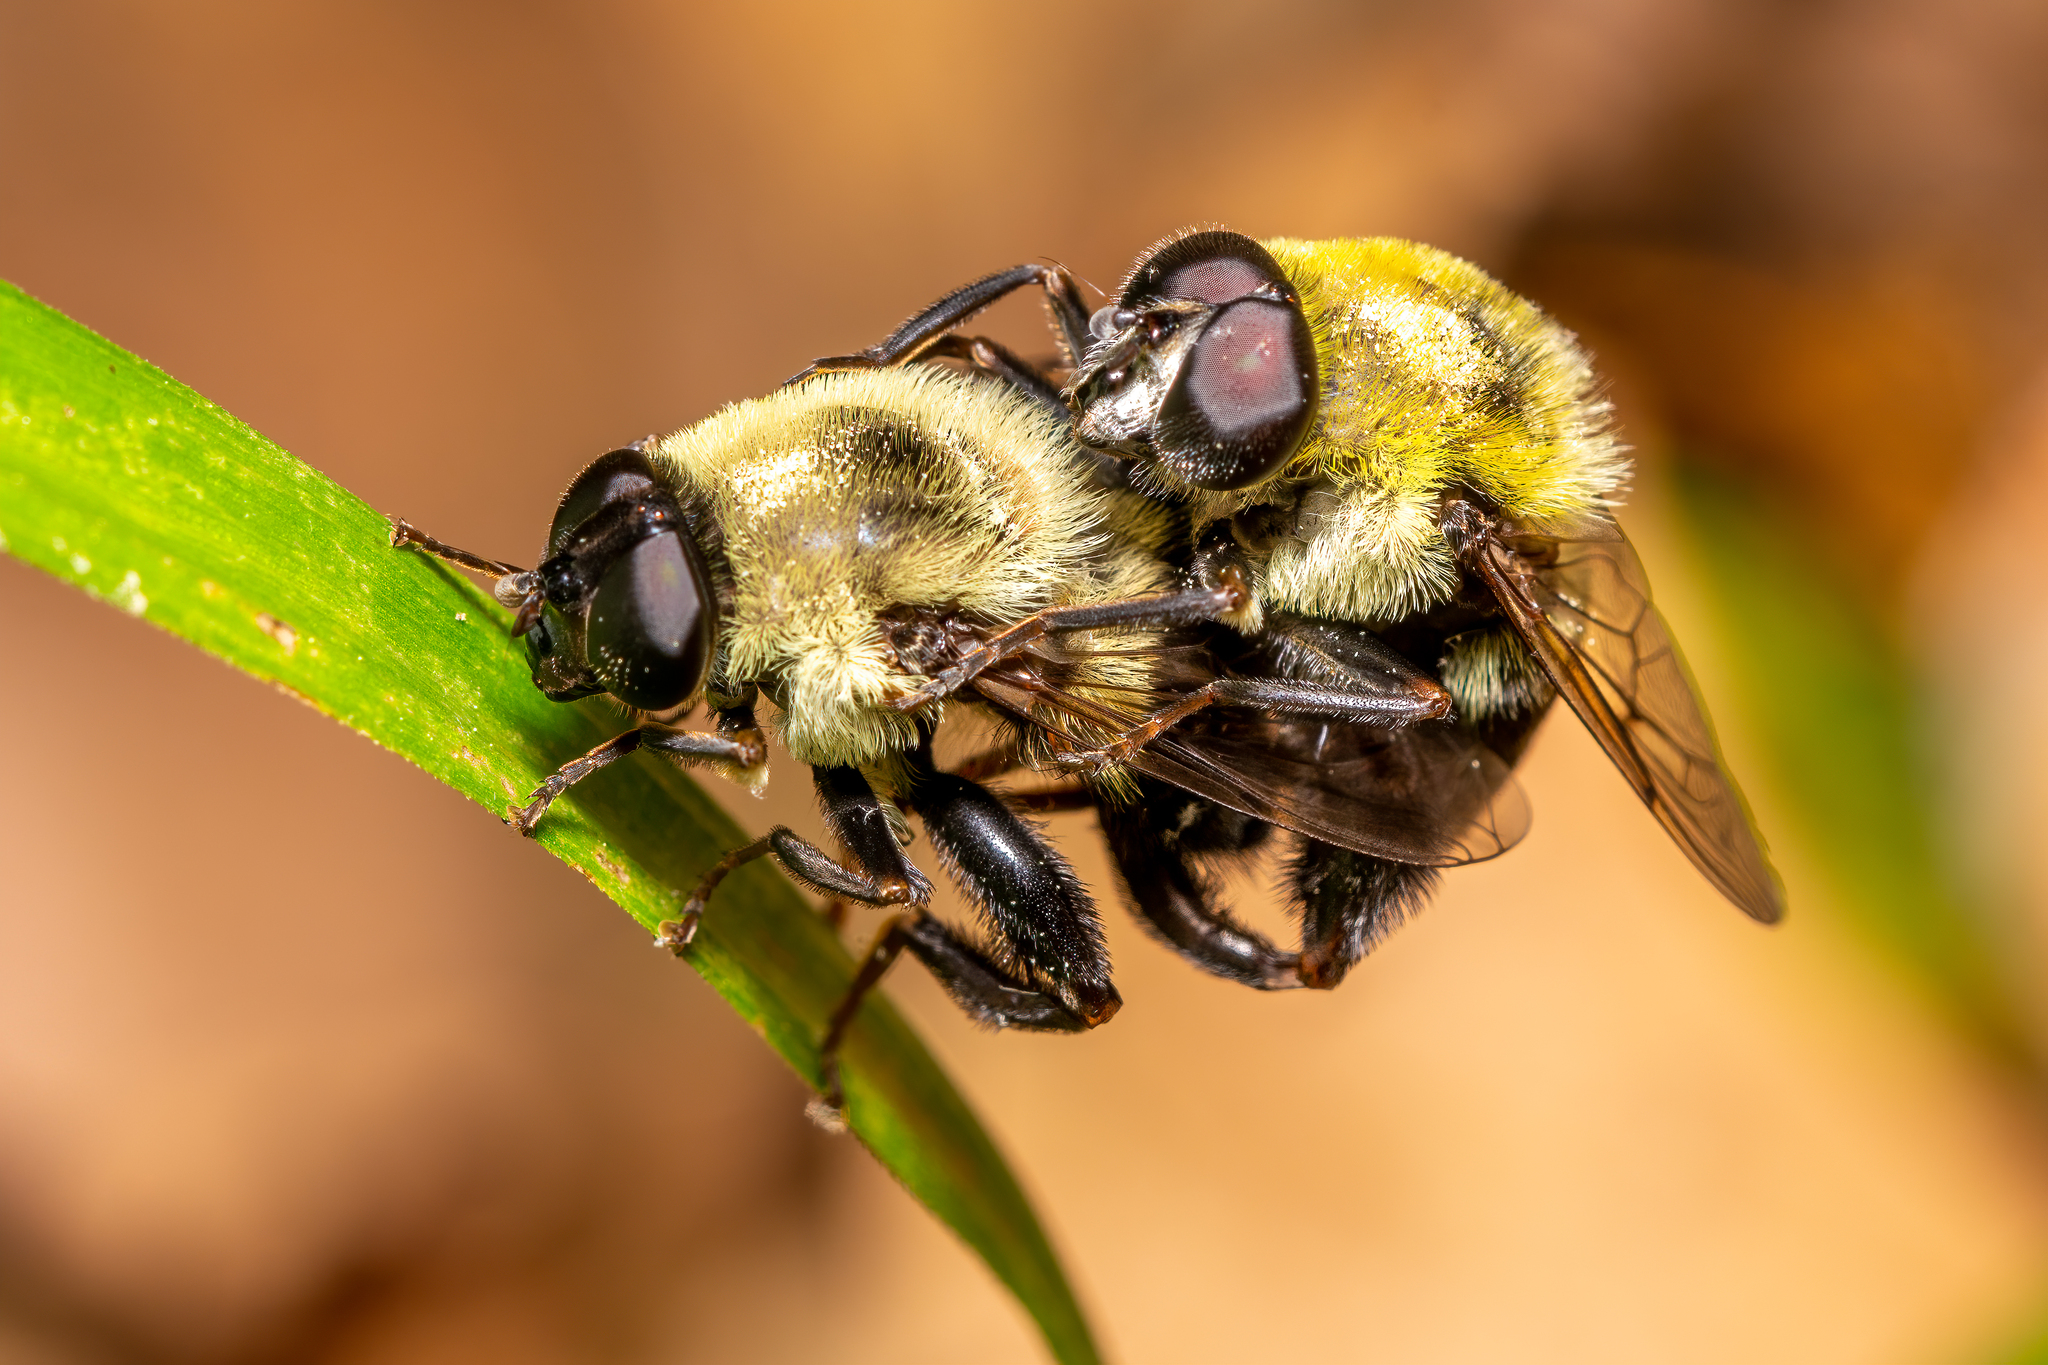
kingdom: Animalia
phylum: Arthropoda
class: Insecta
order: Diptera
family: Syrphidae
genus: Imatisma
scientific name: Imatisma posticata
